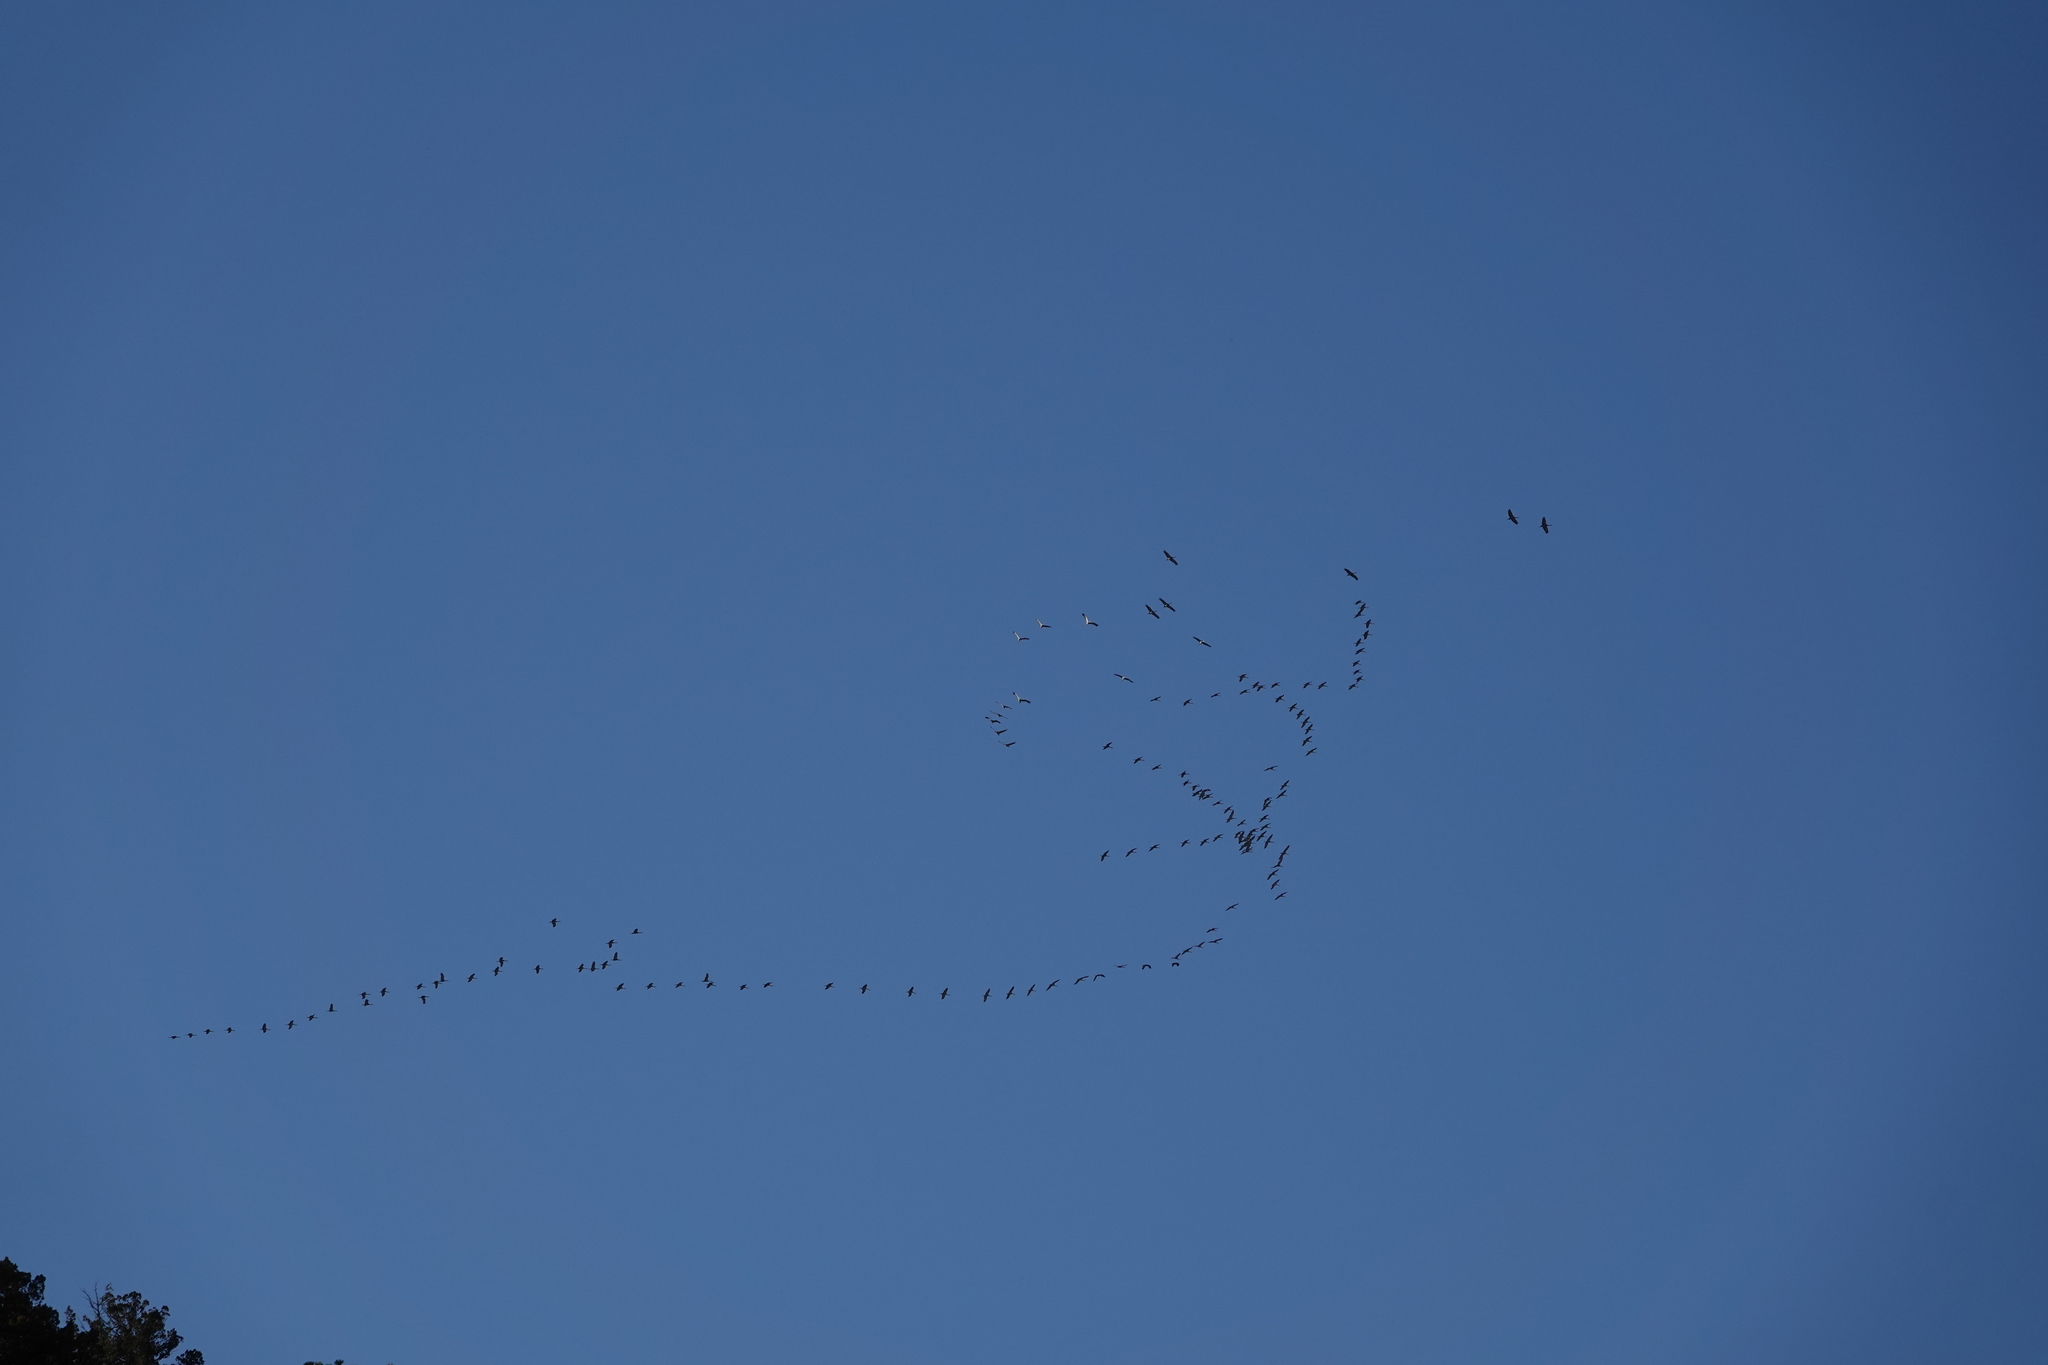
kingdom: Animalia
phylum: Chordata
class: Aves
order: Gruiformes
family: Gruidae
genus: Grus
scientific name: Grus canadensis
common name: Sandhill crane
